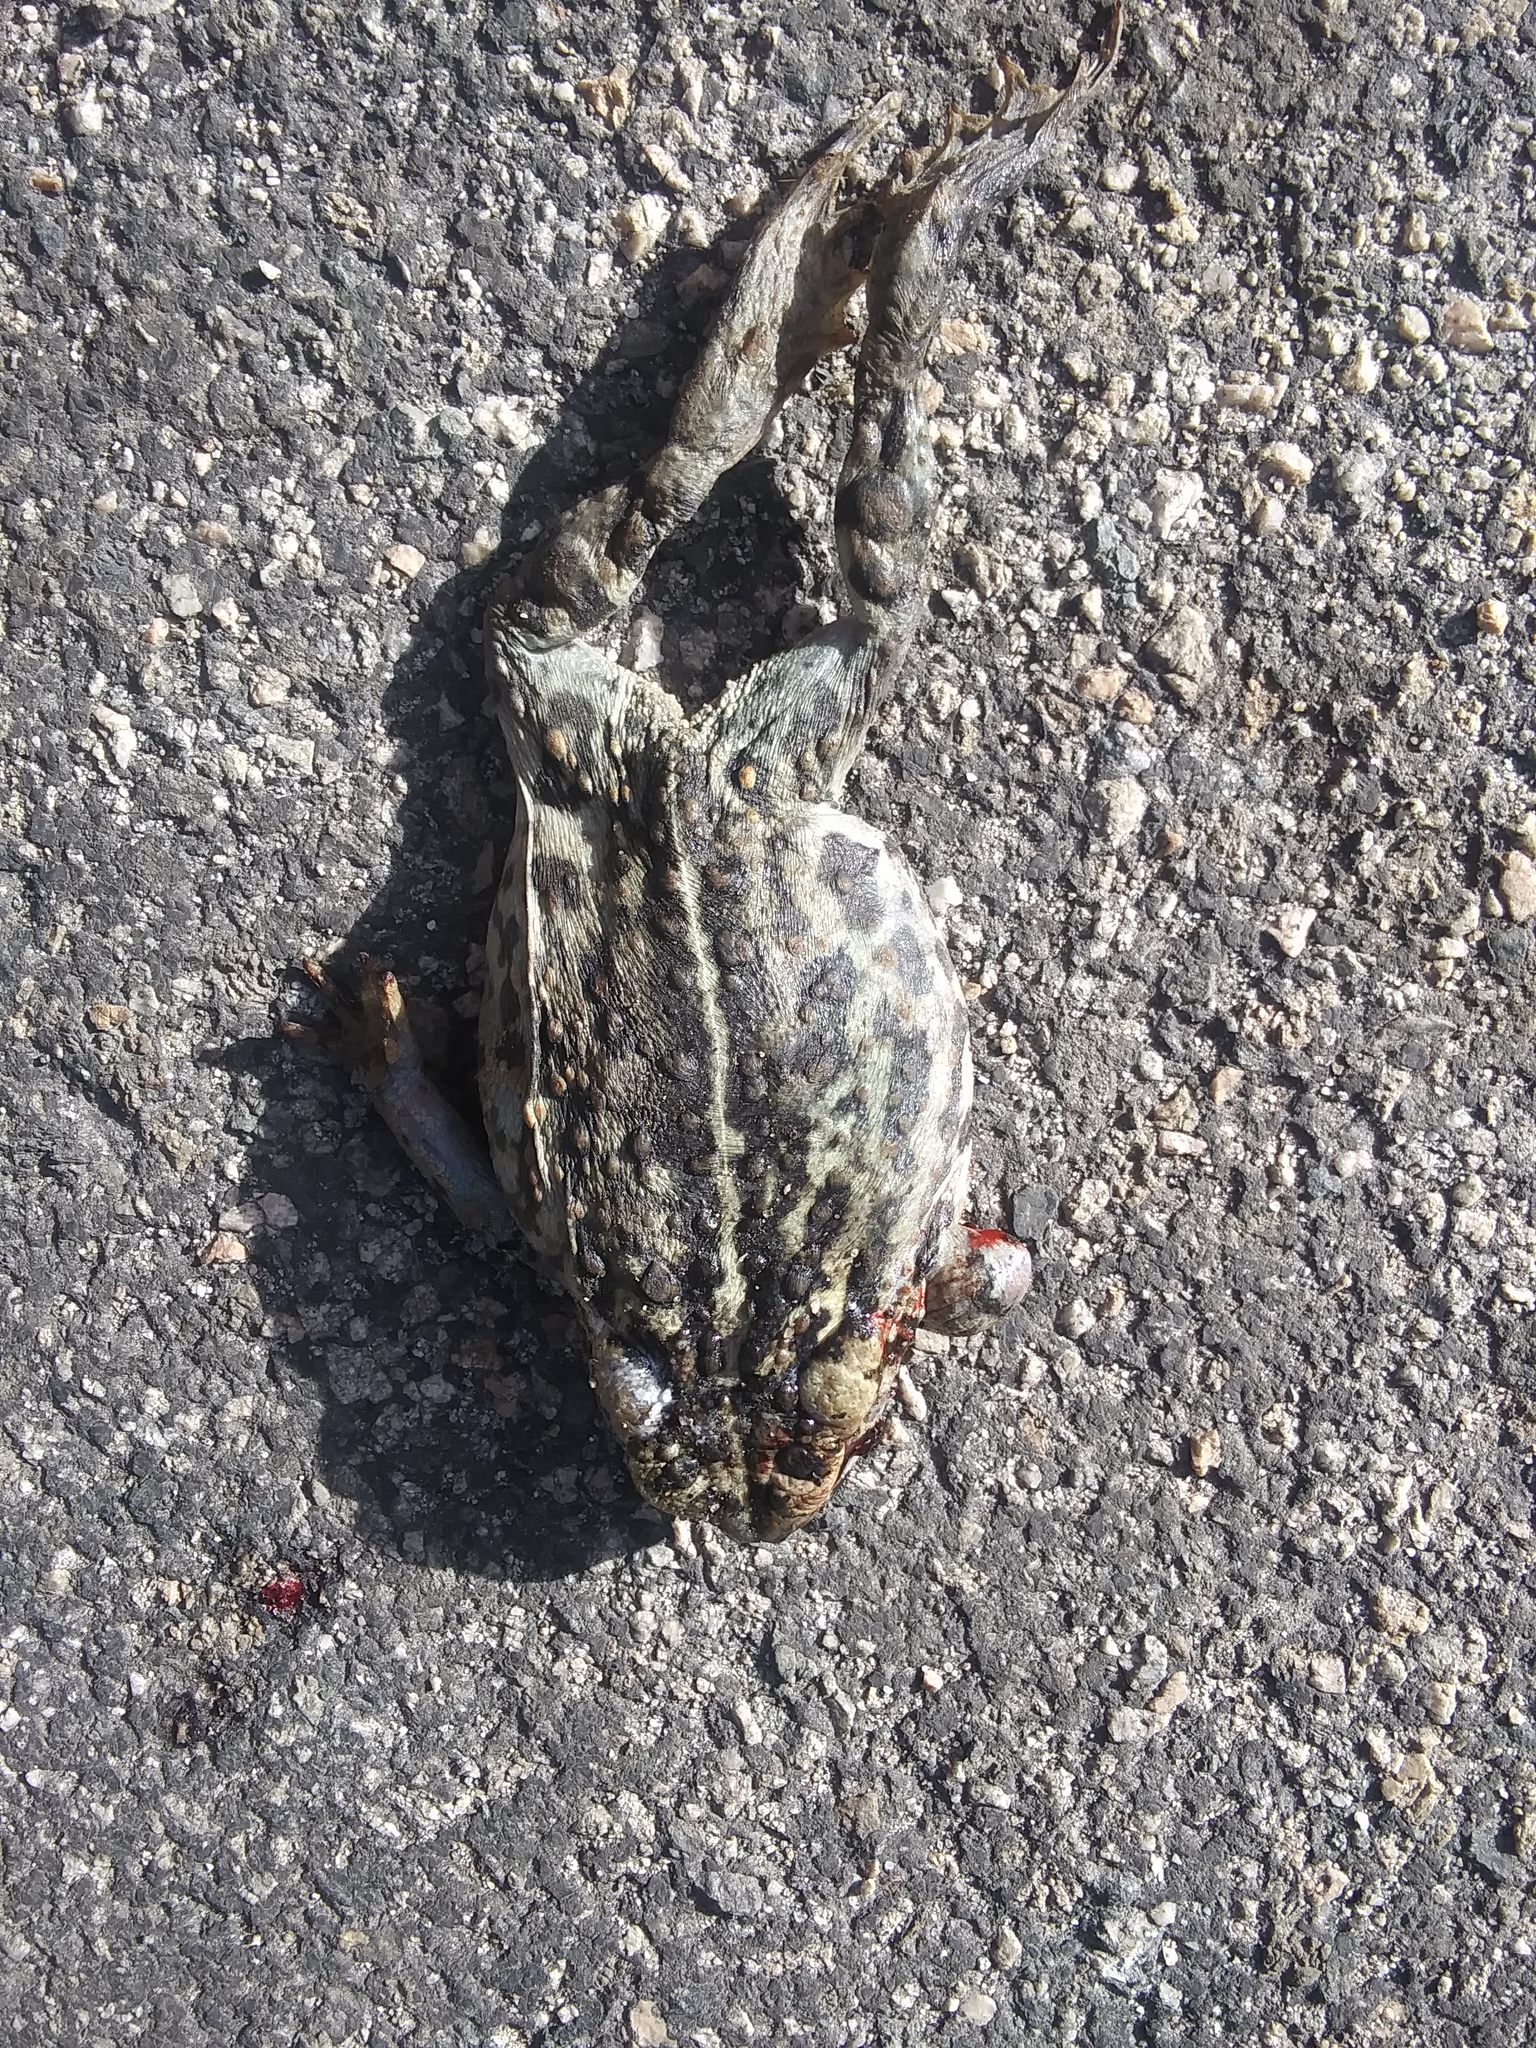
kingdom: Animalia
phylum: Chordata
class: Amphibia
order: Anura
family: Bufonidae
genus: Anaxyrus
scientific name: Anaxyrus boreas
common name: Western toad
